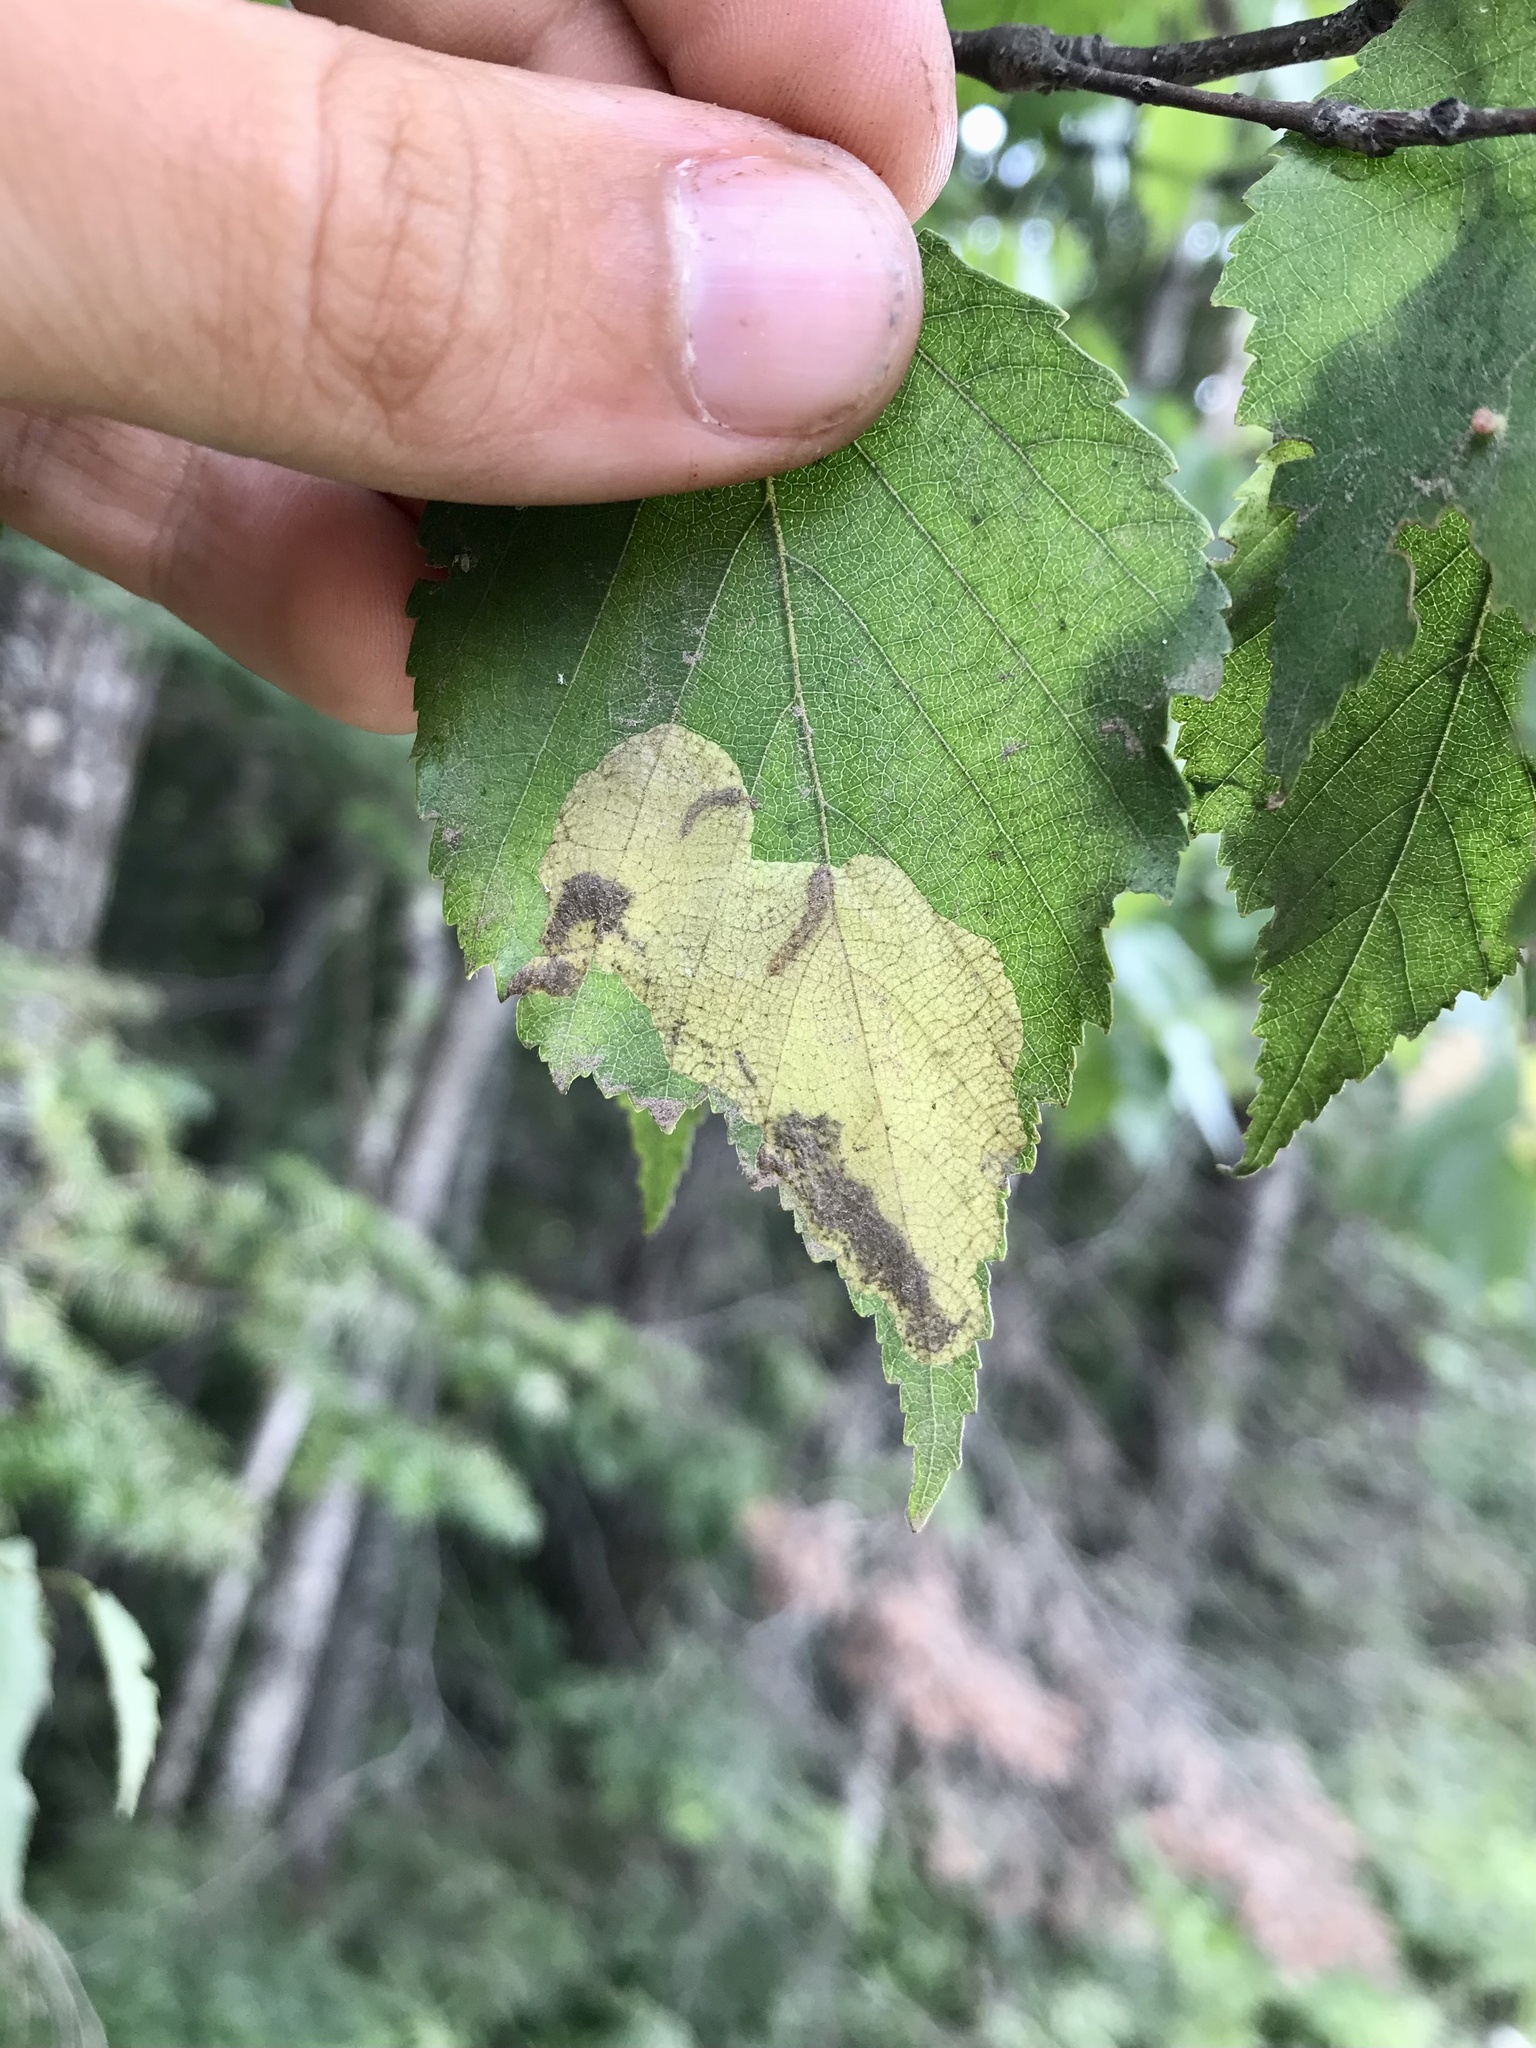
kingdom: Animalia
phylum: Arthropoda
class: Insecta
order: Hymenoptera
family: Tenthredinidae
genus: Fenusella
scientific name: Fenusella nana
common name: Early birch leaf edgeminer
